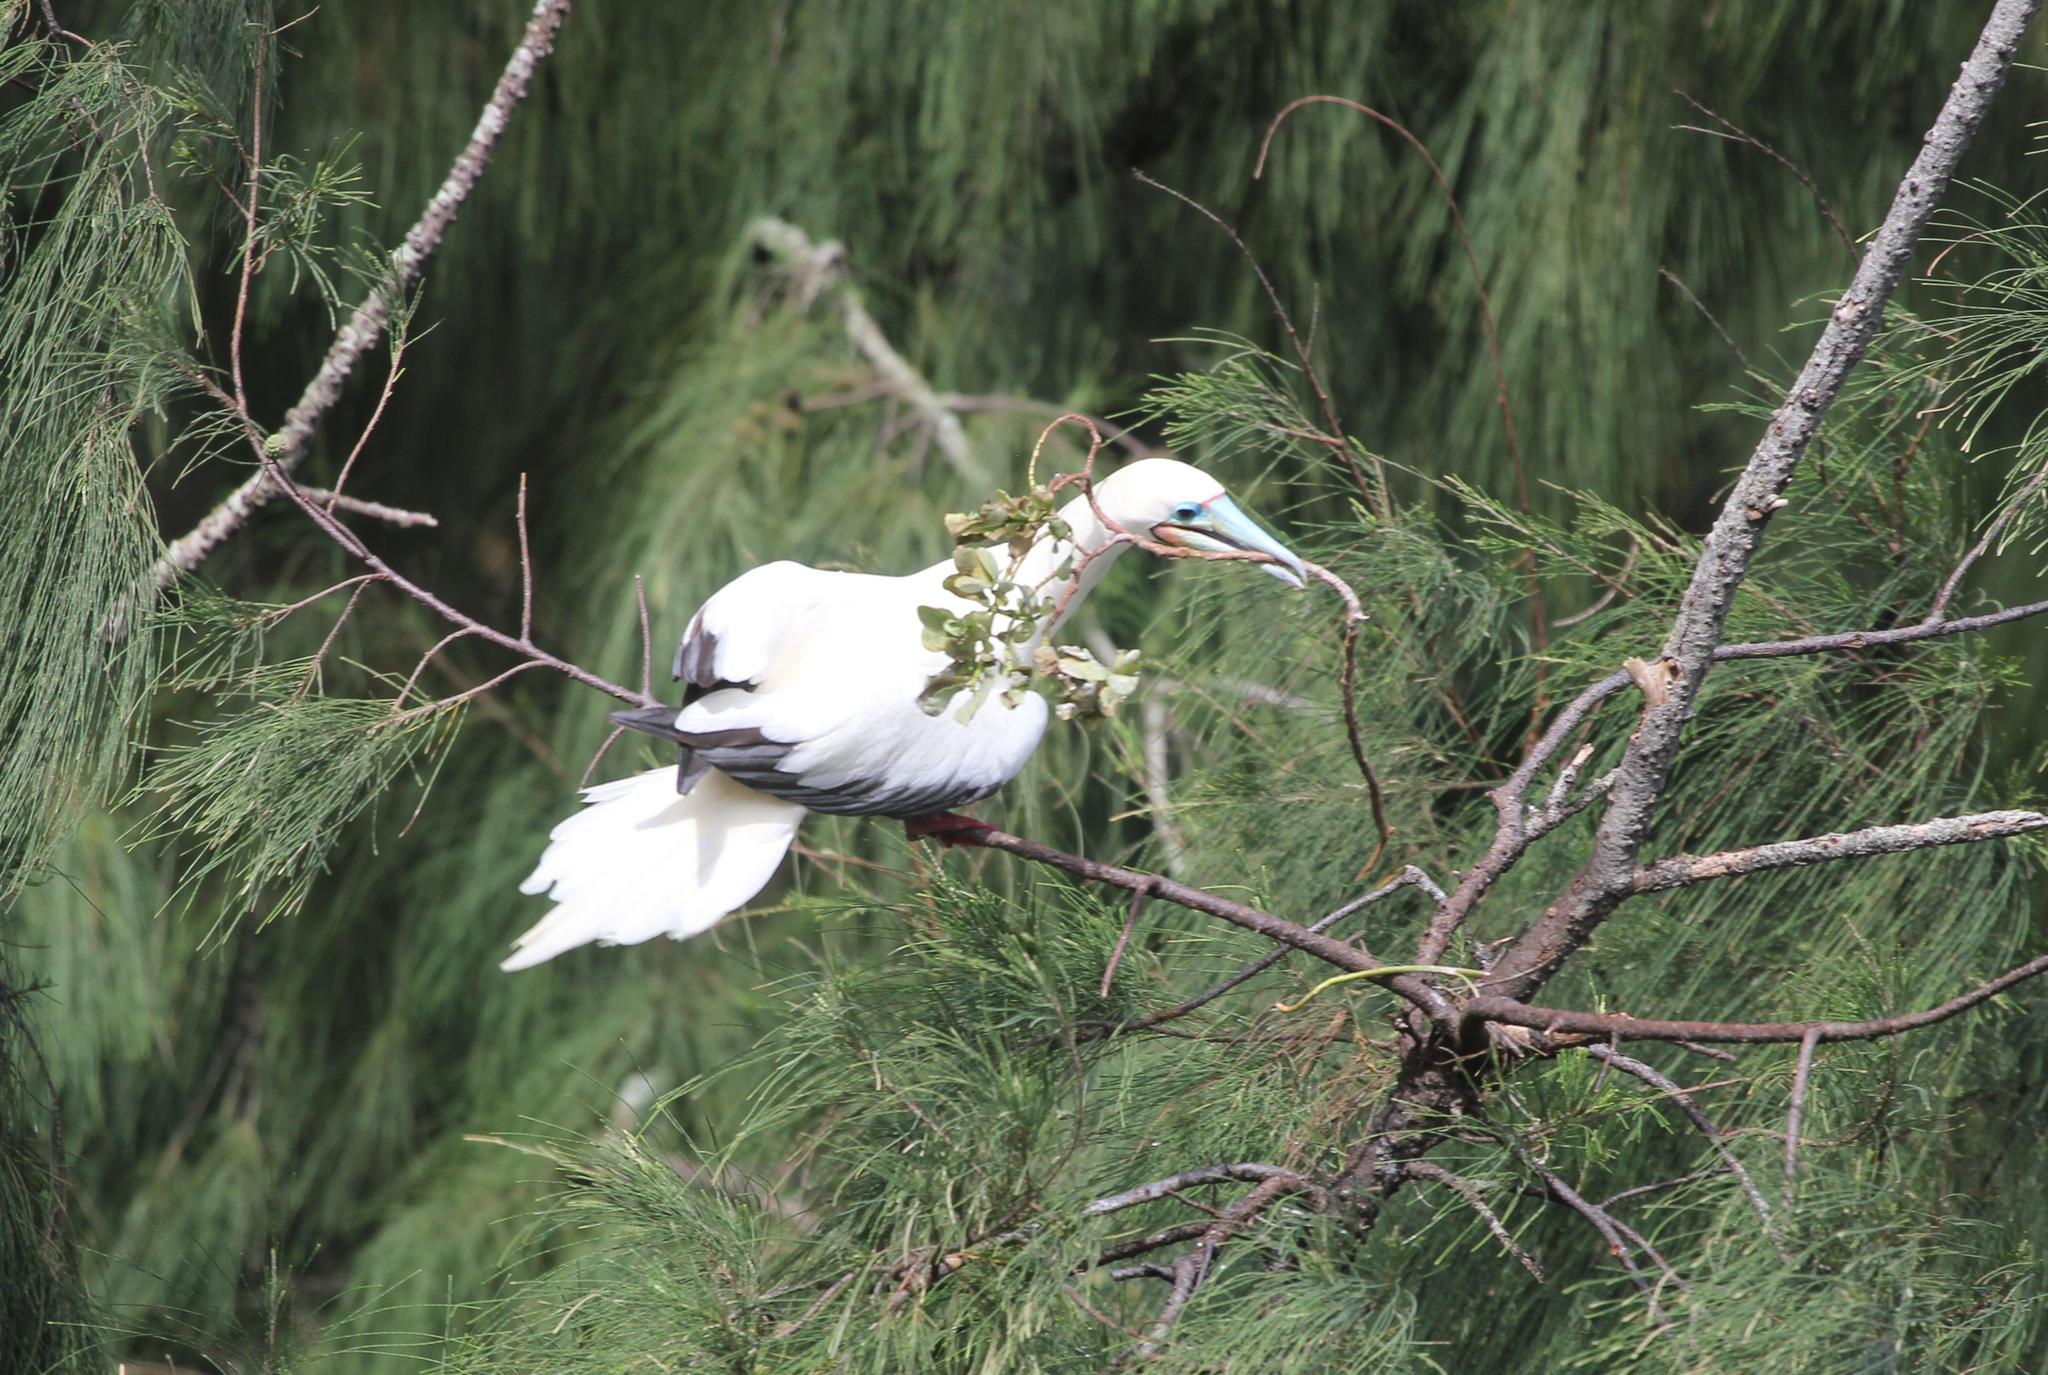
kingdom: Animalia
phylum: Chordata
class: Aves
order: Suliformes
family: Sulidae
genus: Sula
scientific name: Sula sula
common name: Red-footed booby
